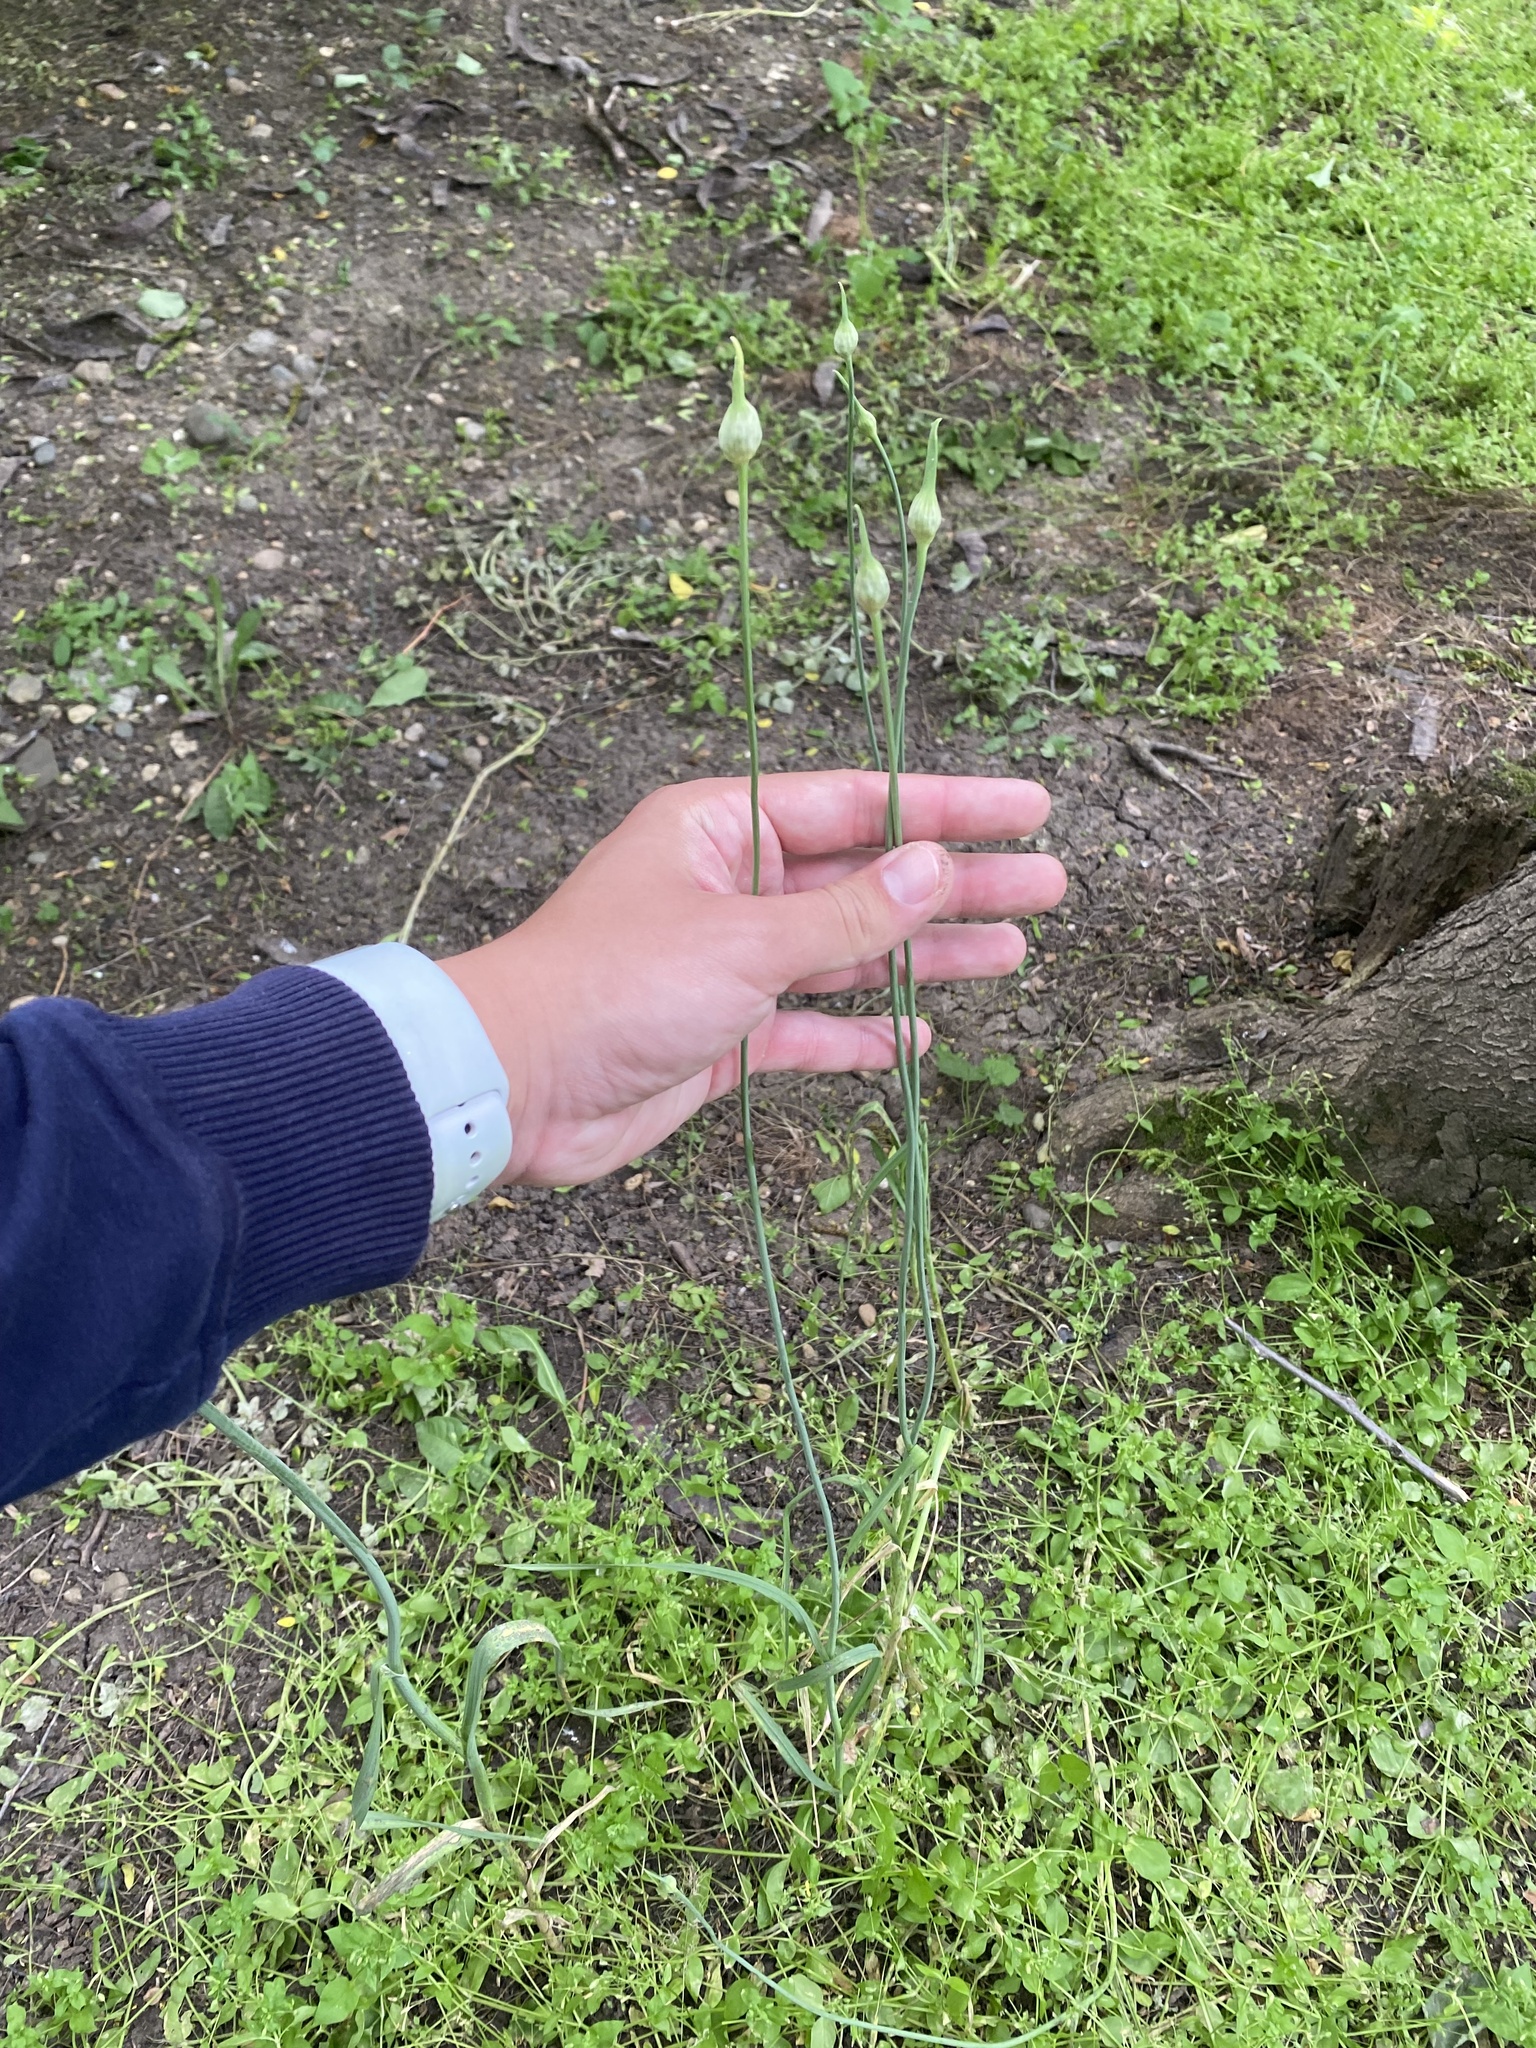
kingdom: Plantae
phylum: Tracheophyta
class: Liliopsida
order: Asparagales
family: Amaryllidaceae
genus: Allium
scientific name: Allium rotundum
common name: Sand leek
